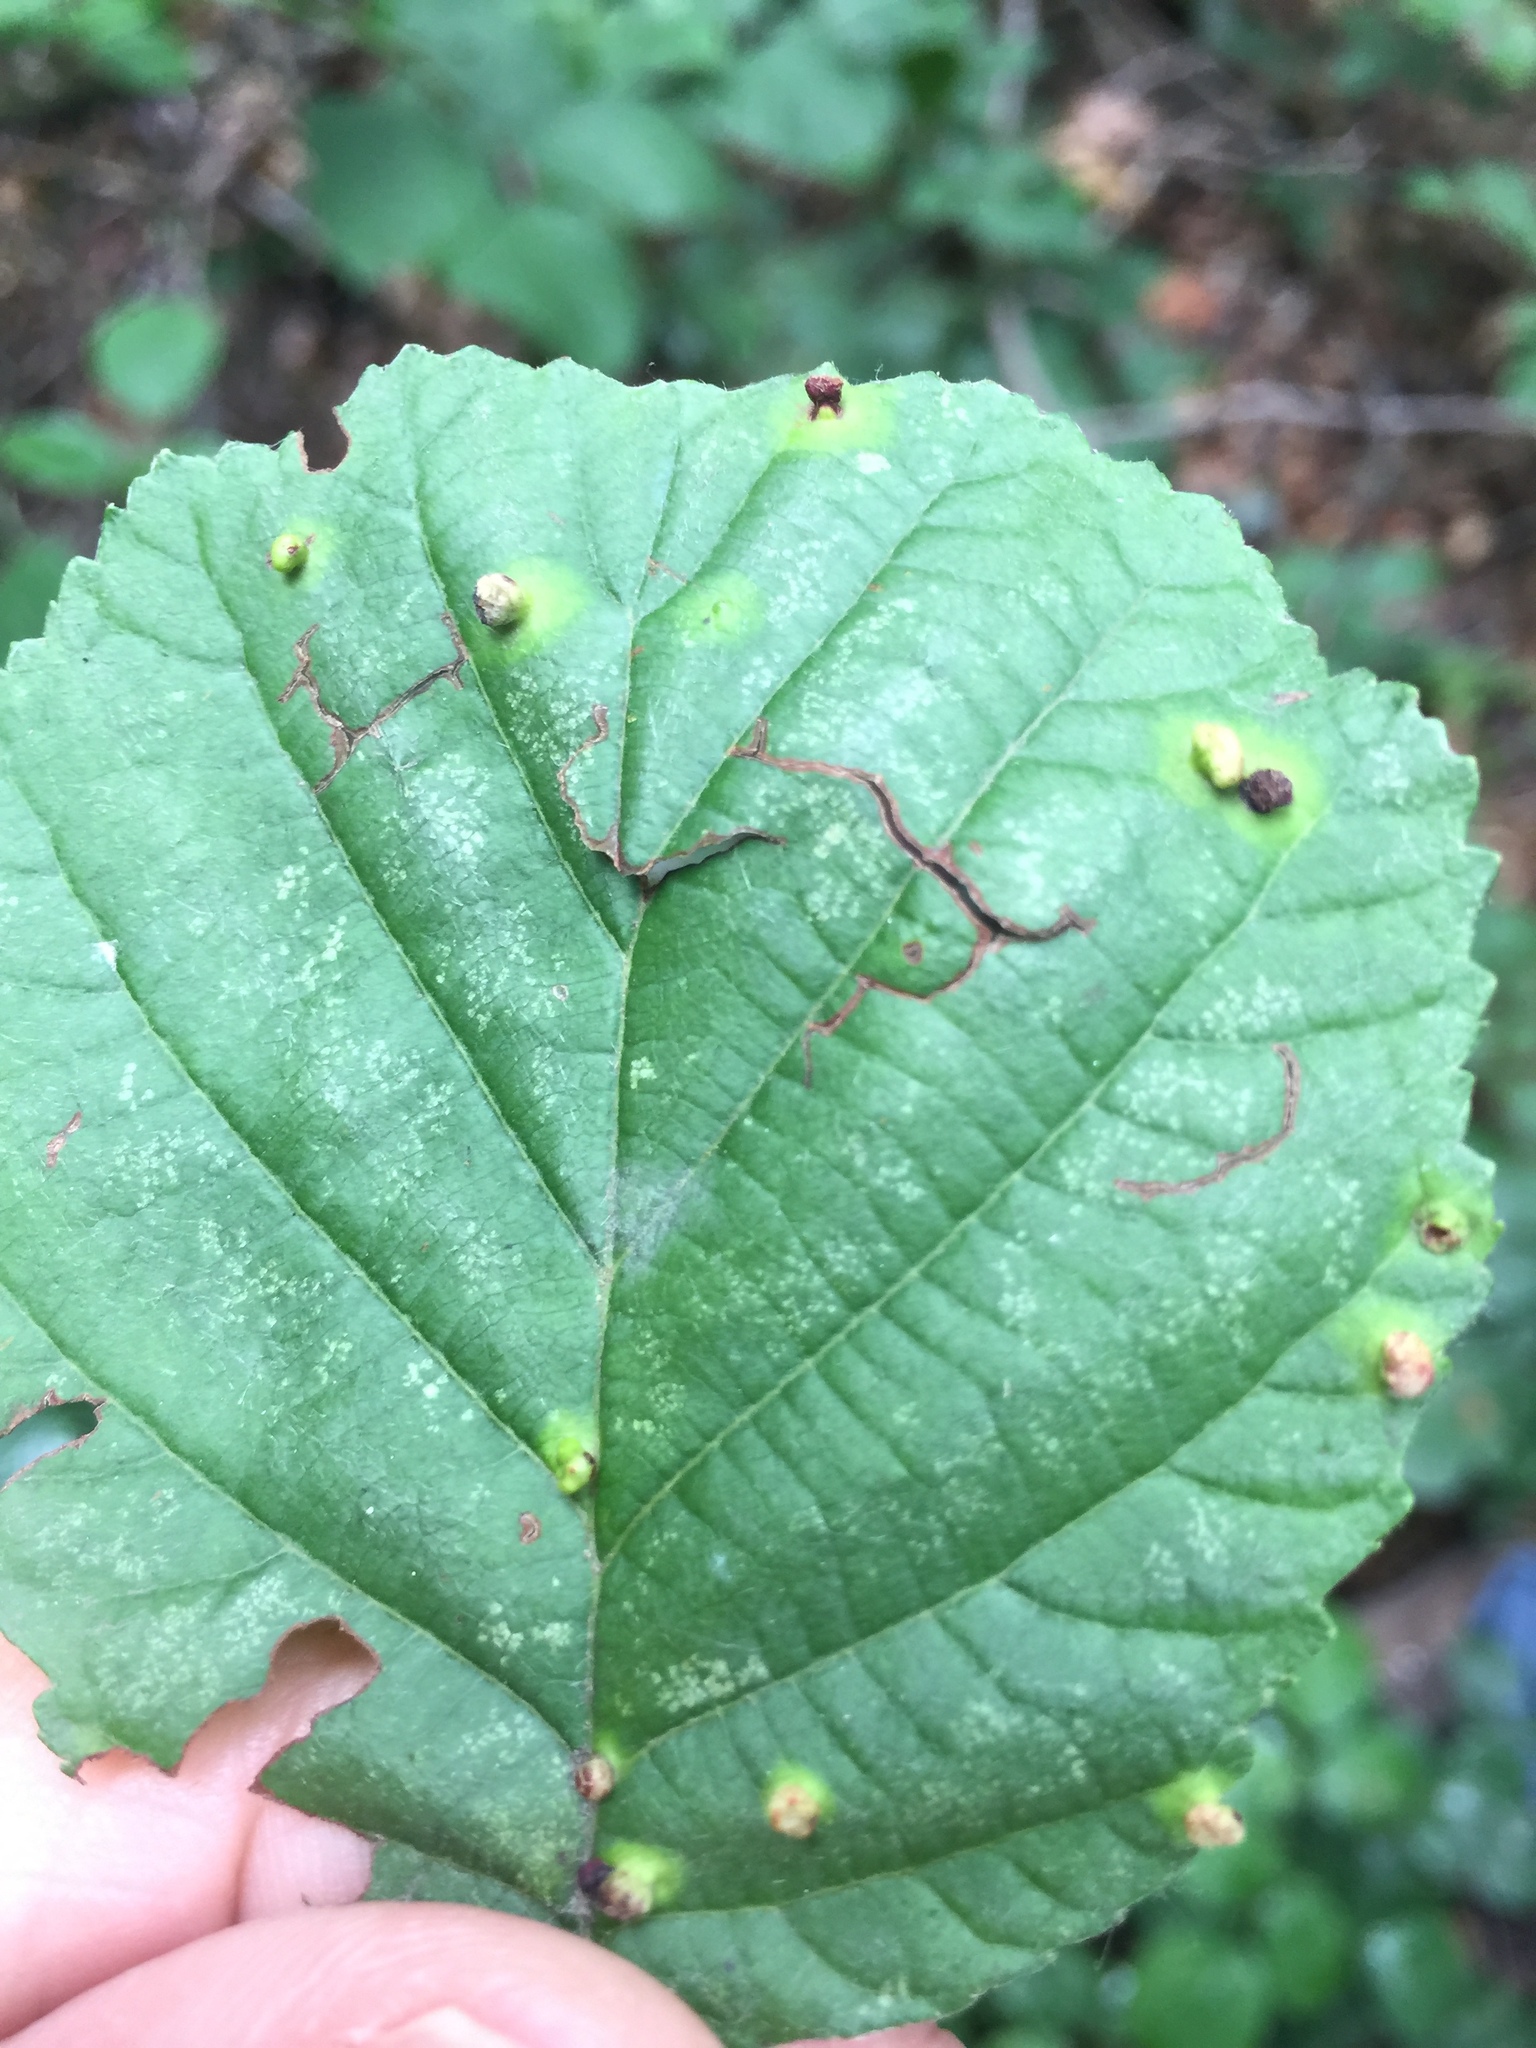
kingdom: Animalia
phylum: Arthropoda
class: Arachnida
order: Trombidiformes
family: Eriophyidae
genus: Eriophyes
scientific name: Eriophyes laevis
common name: Alder leaf gall mite
